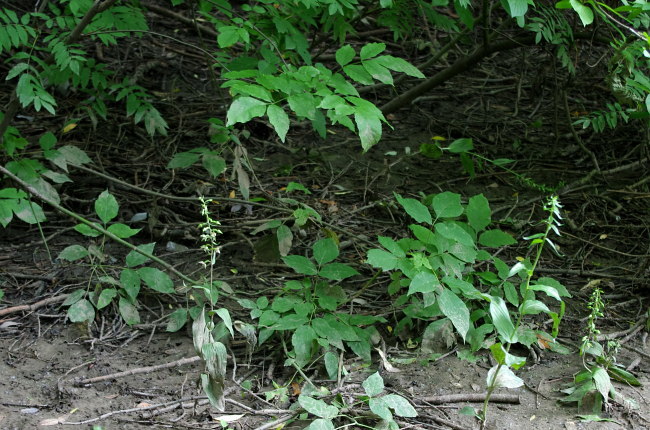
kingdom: Plantae
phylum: Tracheophyta
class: Liliopsida
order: Asparagales
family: Orchidaceae
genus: Epipactis
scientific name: Epipactis helleborine
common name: Broad-leaved helleborine
